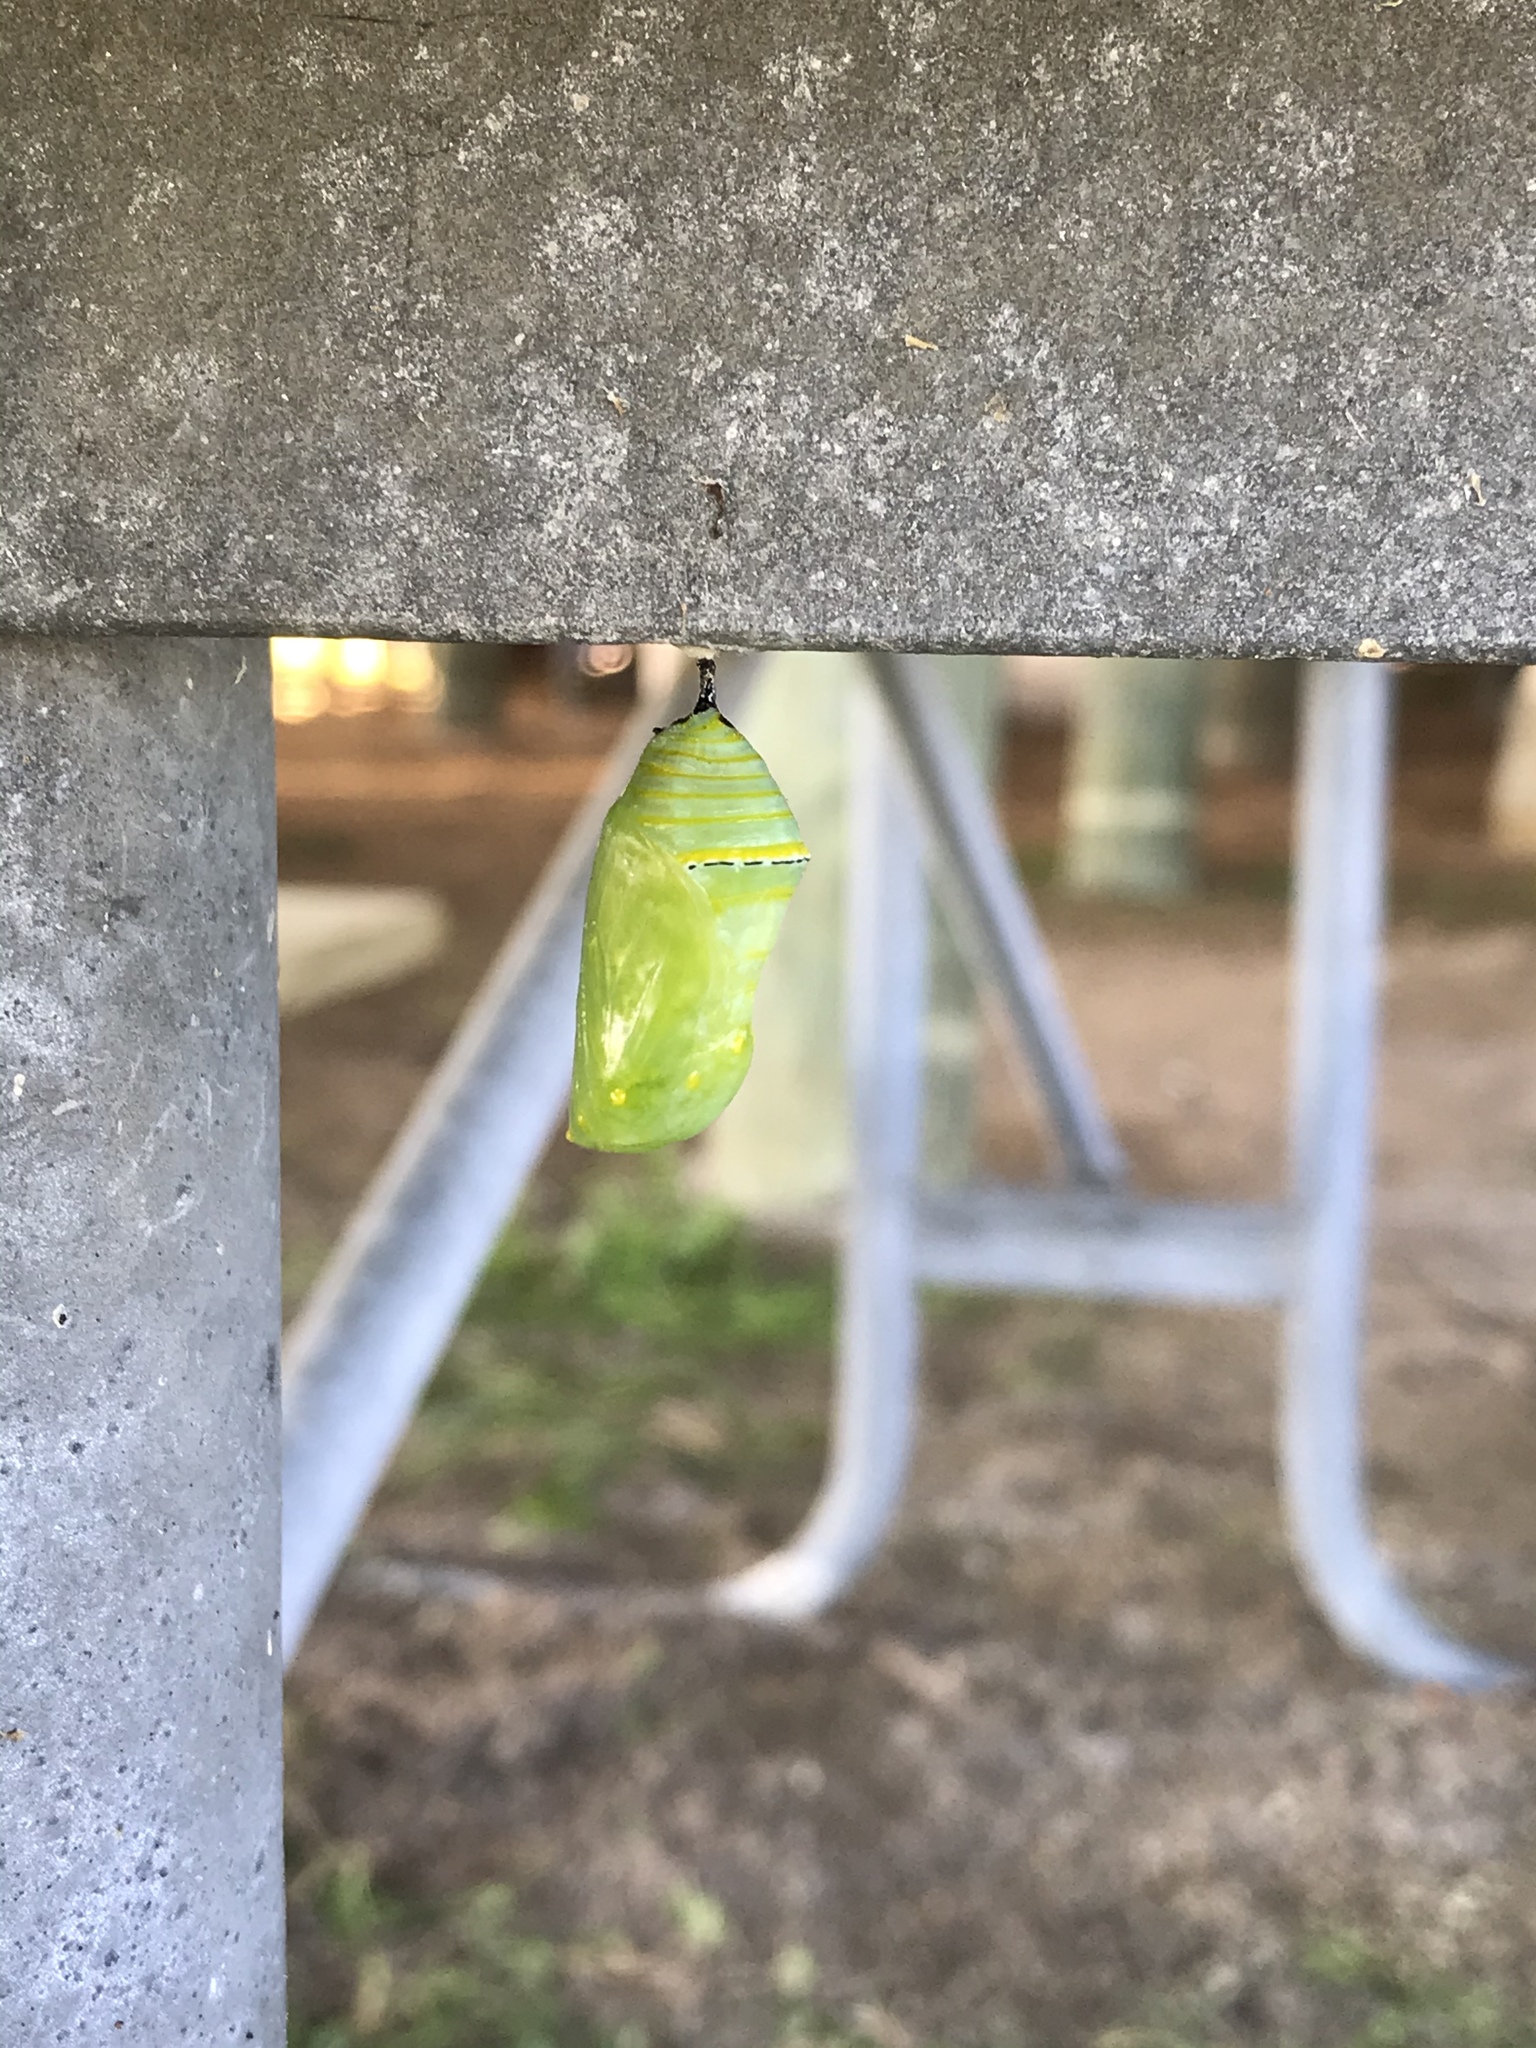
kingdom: Animalia
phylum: Arthropoda
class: Insecta
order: Lepidoptera
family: Nymphalidae
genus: Danaus
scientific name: Danaus plexippus
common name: Monarch
